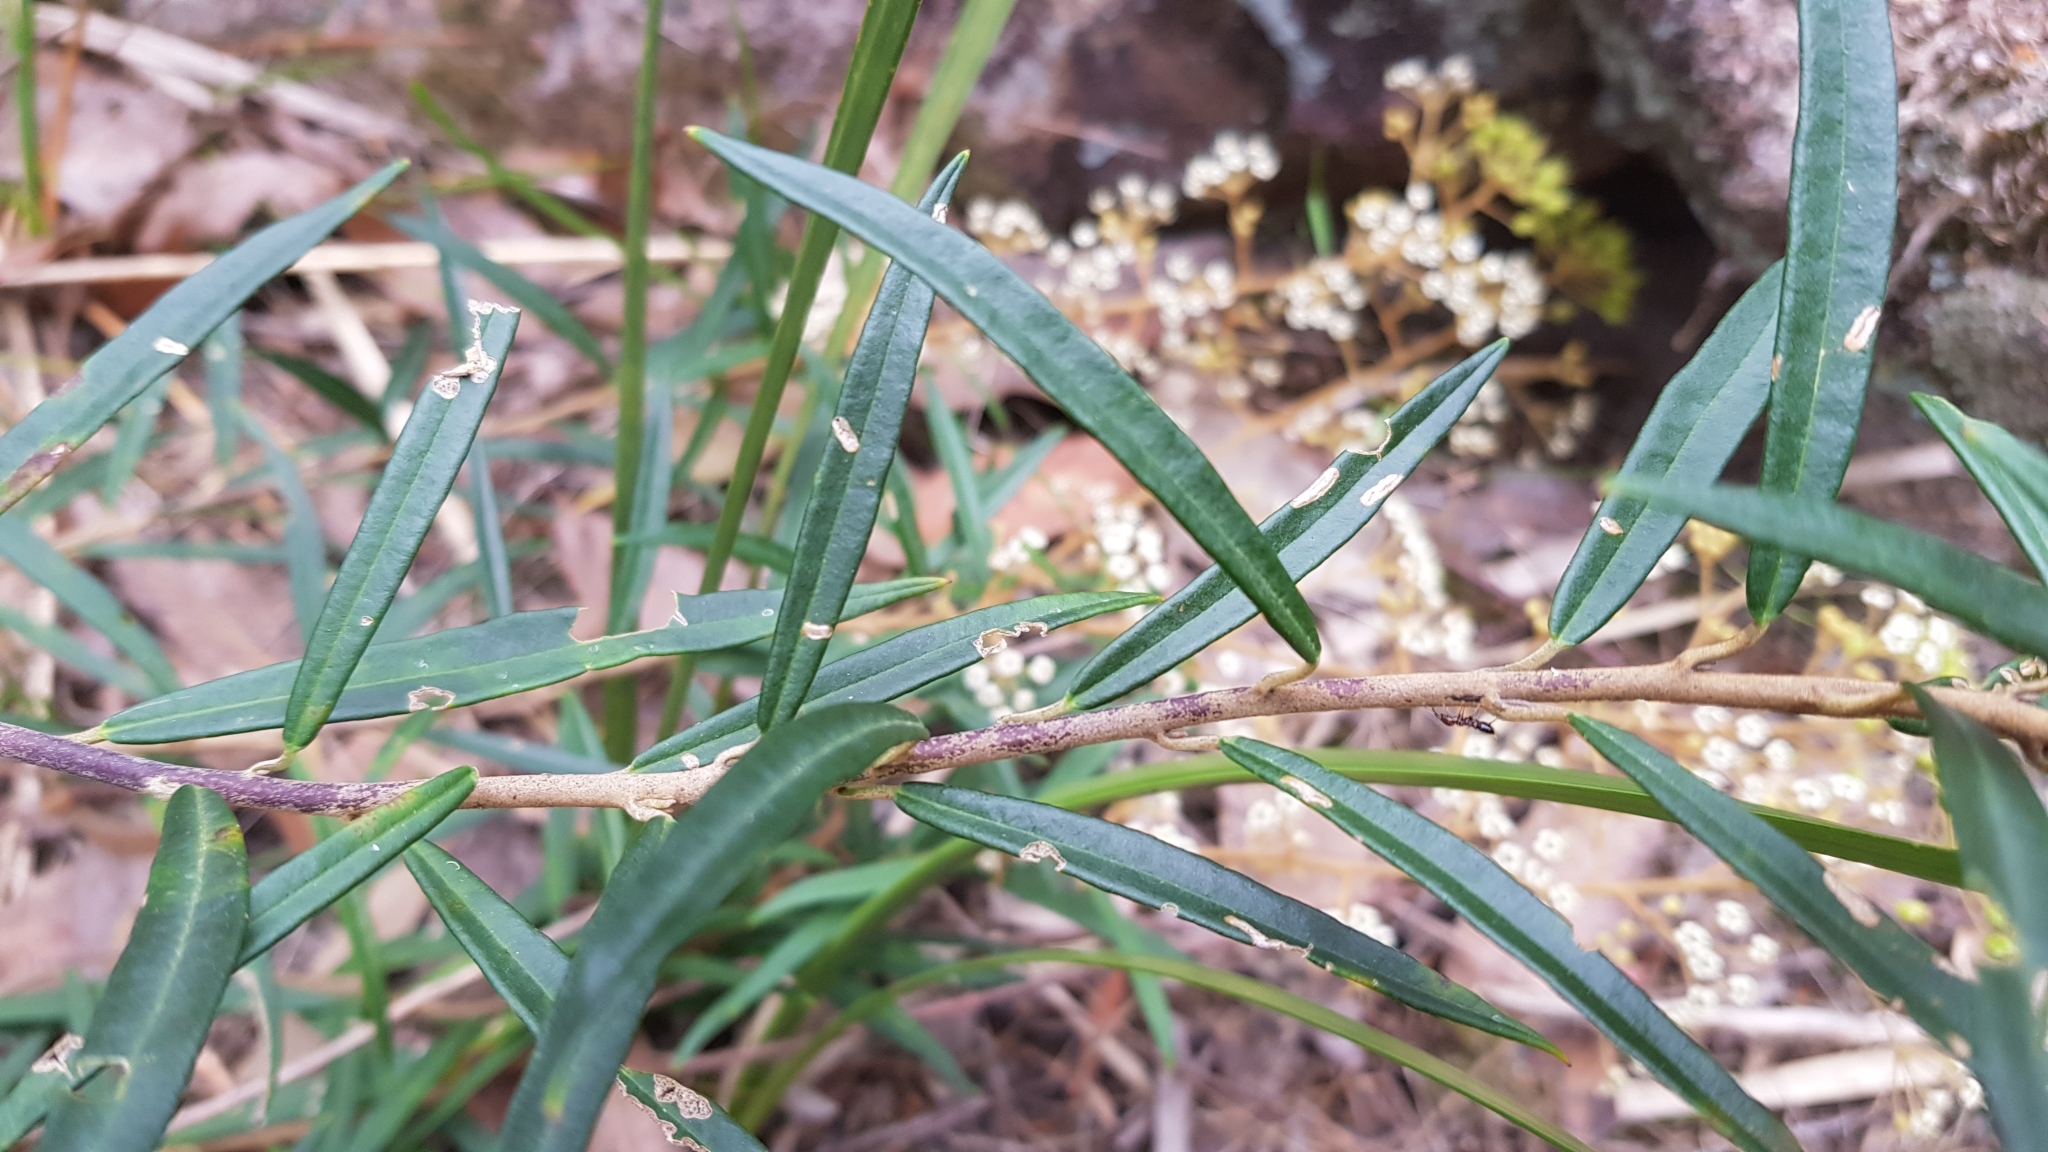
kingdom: Plantae
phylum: Tracheophyta
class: Magnoliopsida
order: Apiales
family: Araliaceae
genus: Astrotricha
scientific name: Astrotricha longifolia
